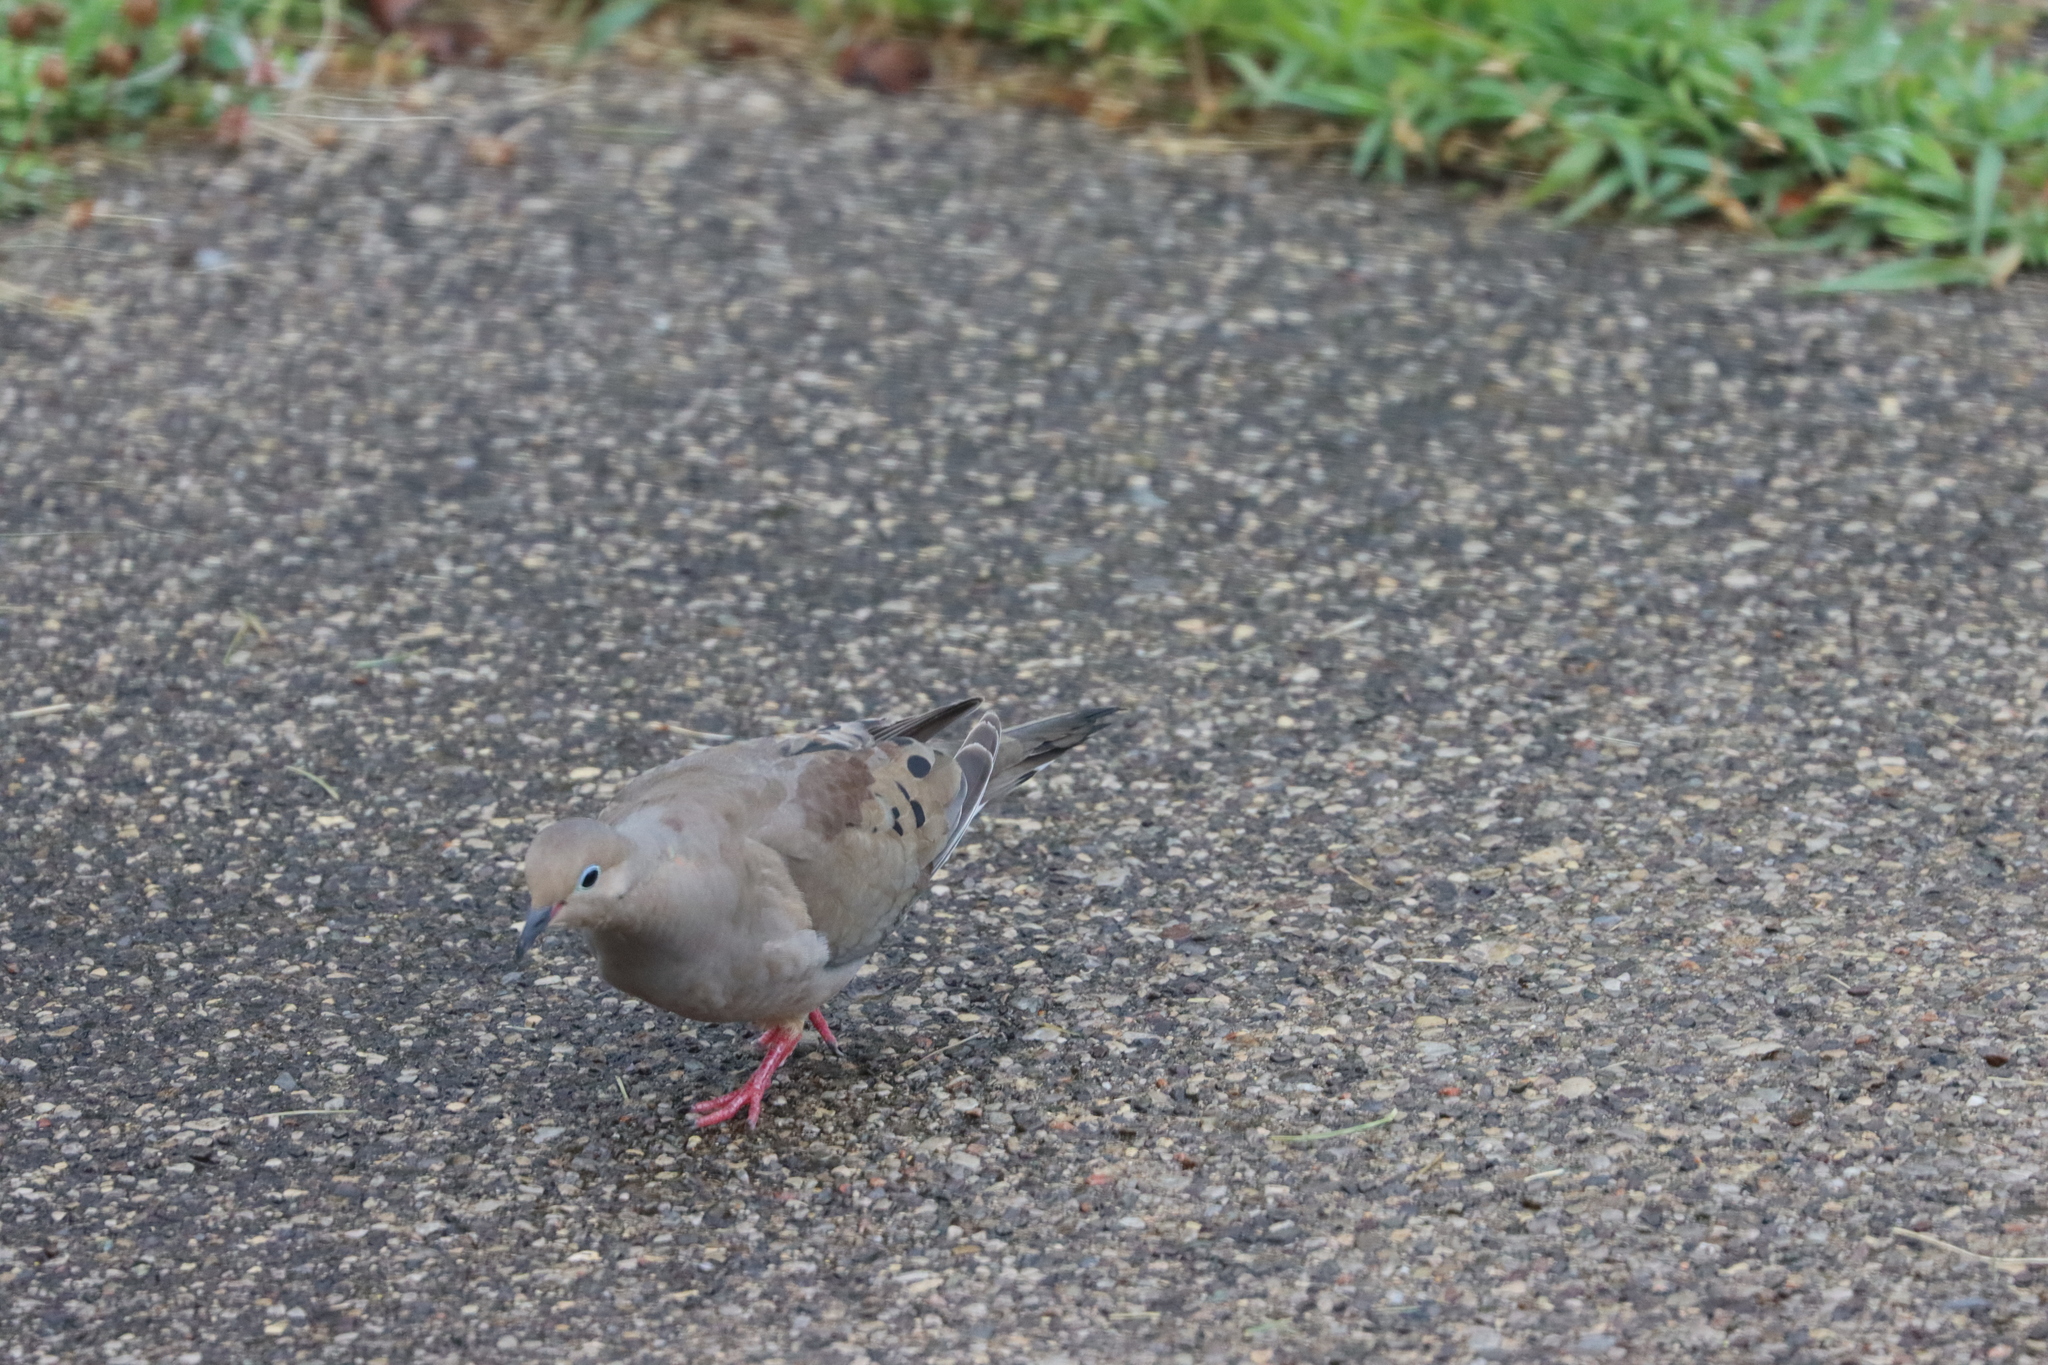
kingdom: Animalia
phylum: Chordata
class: Aves
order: Columbiformes
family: Columbidae
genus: Zenaida
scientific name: Zenaida macroura
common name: Mourning dove
